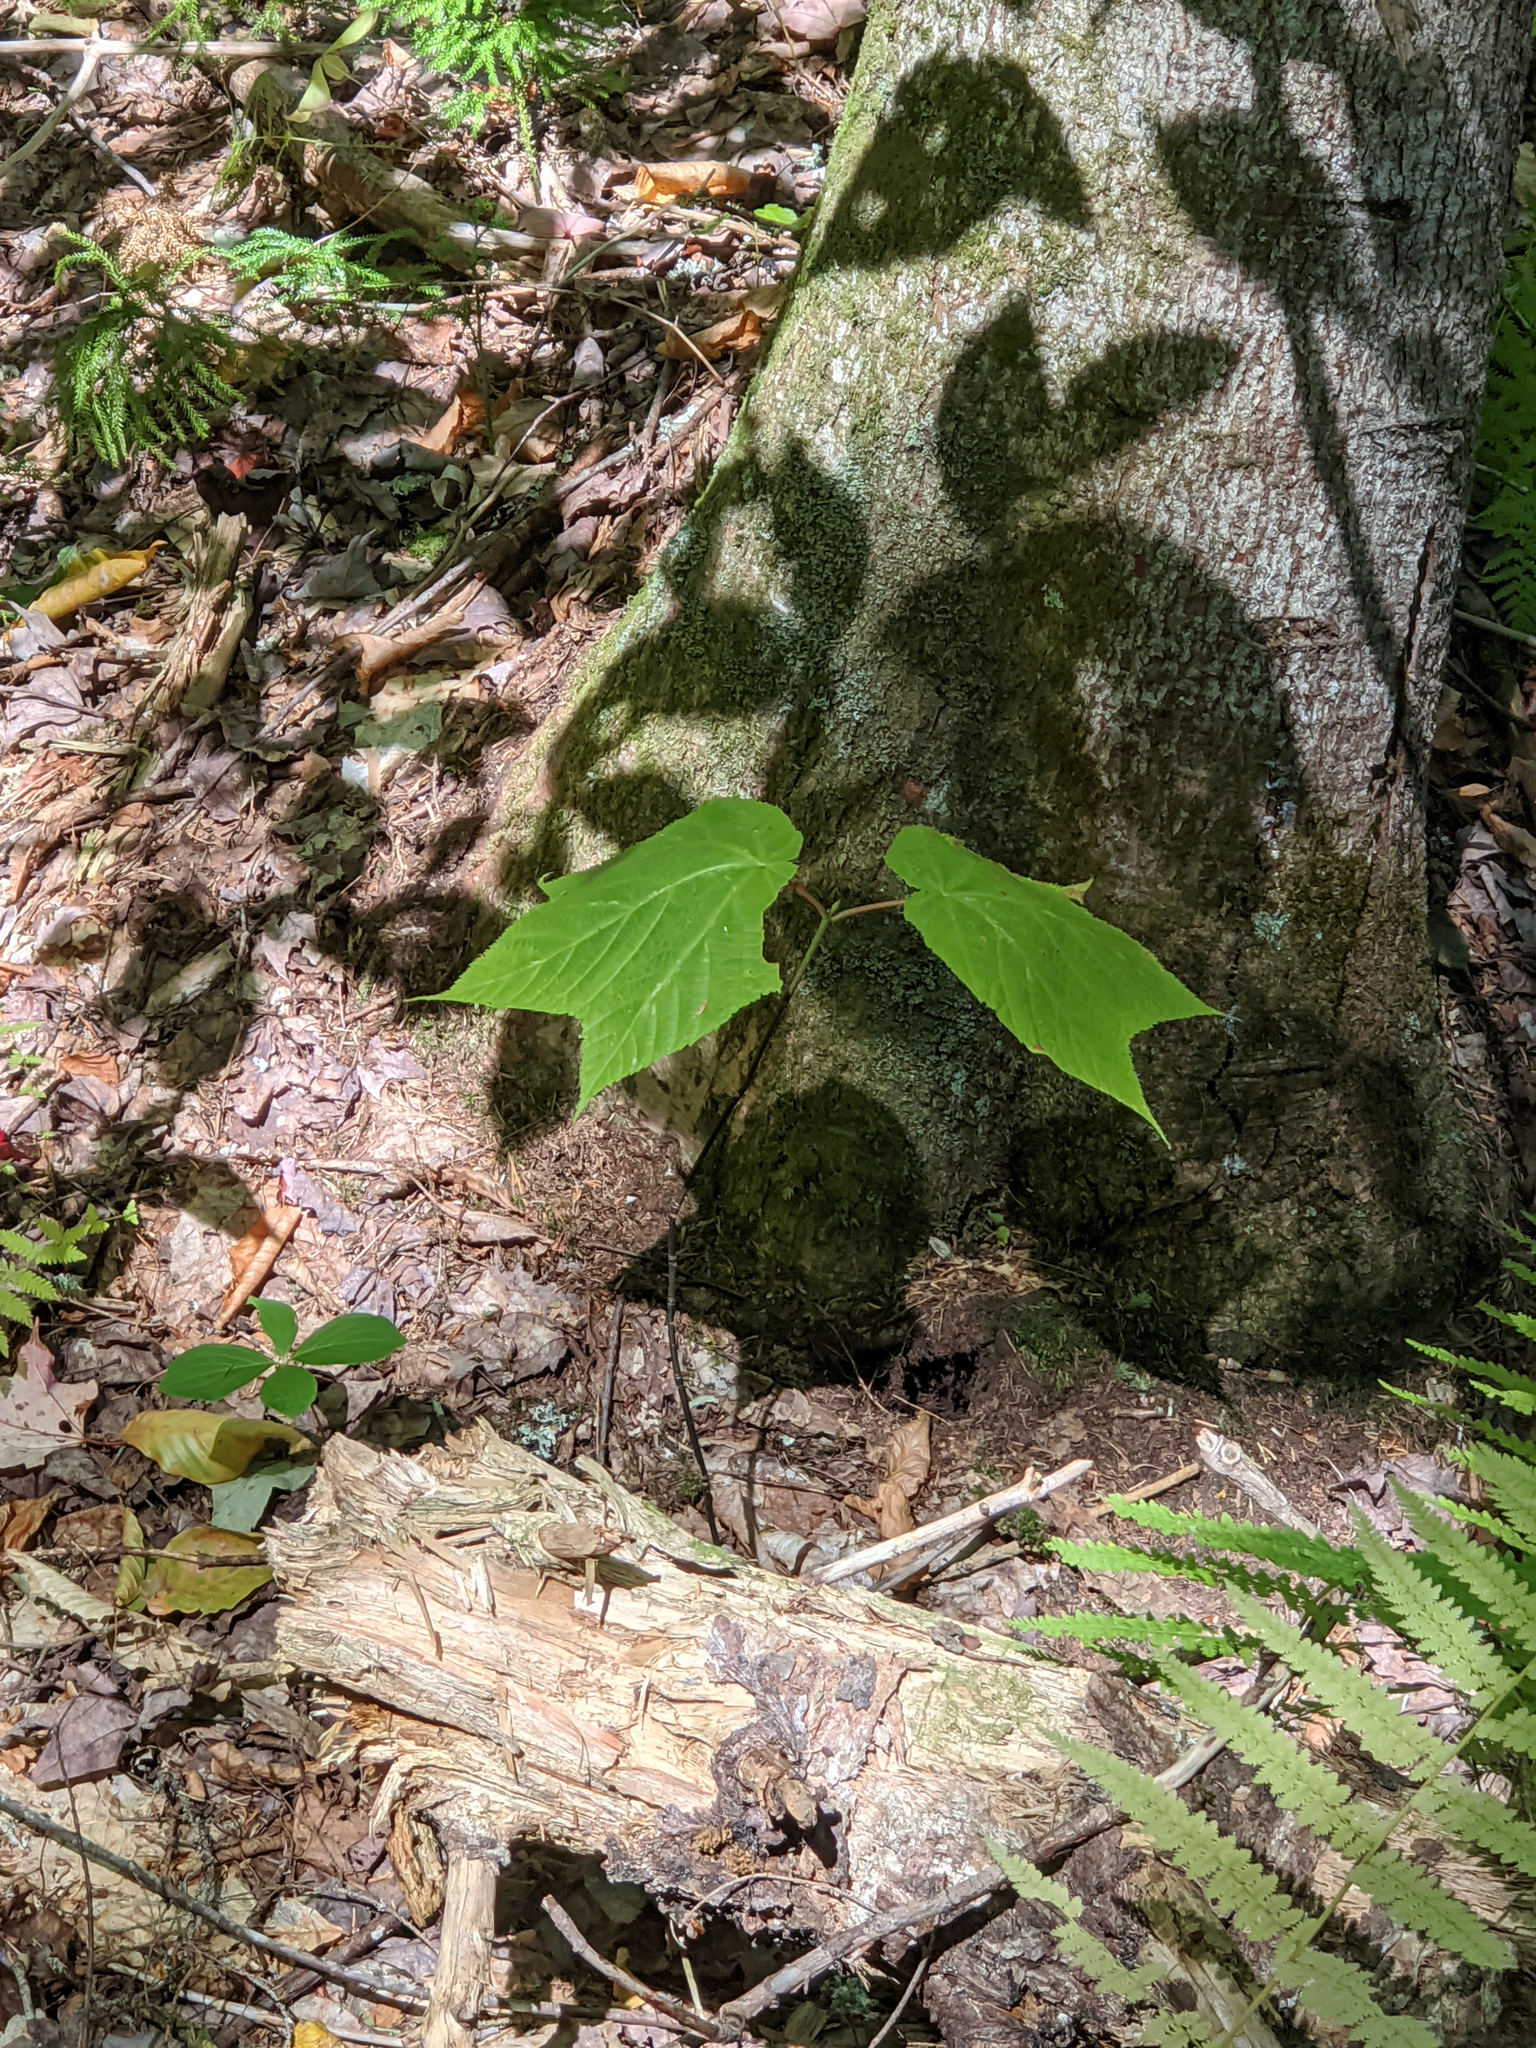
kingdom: Plantae
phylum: Tracheophyta
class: Magnoliopsida
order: Sapindales
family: Sapindaceae
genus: Acer
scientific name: Acer pensylvanicum
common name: Moosewood
